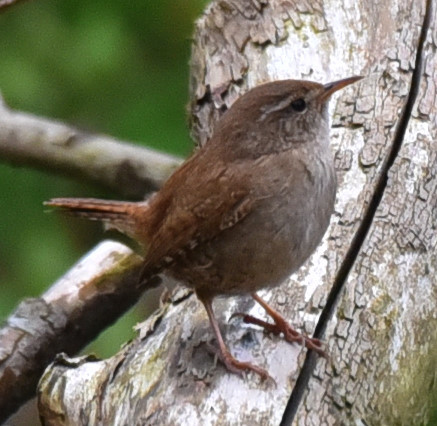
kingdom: Animalia
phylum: Chordata
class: Aves
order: Passeriformes
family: Troglodytidae
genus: Troglodytes
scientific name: Troglodytes troglodytes
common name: Eurasian wren
